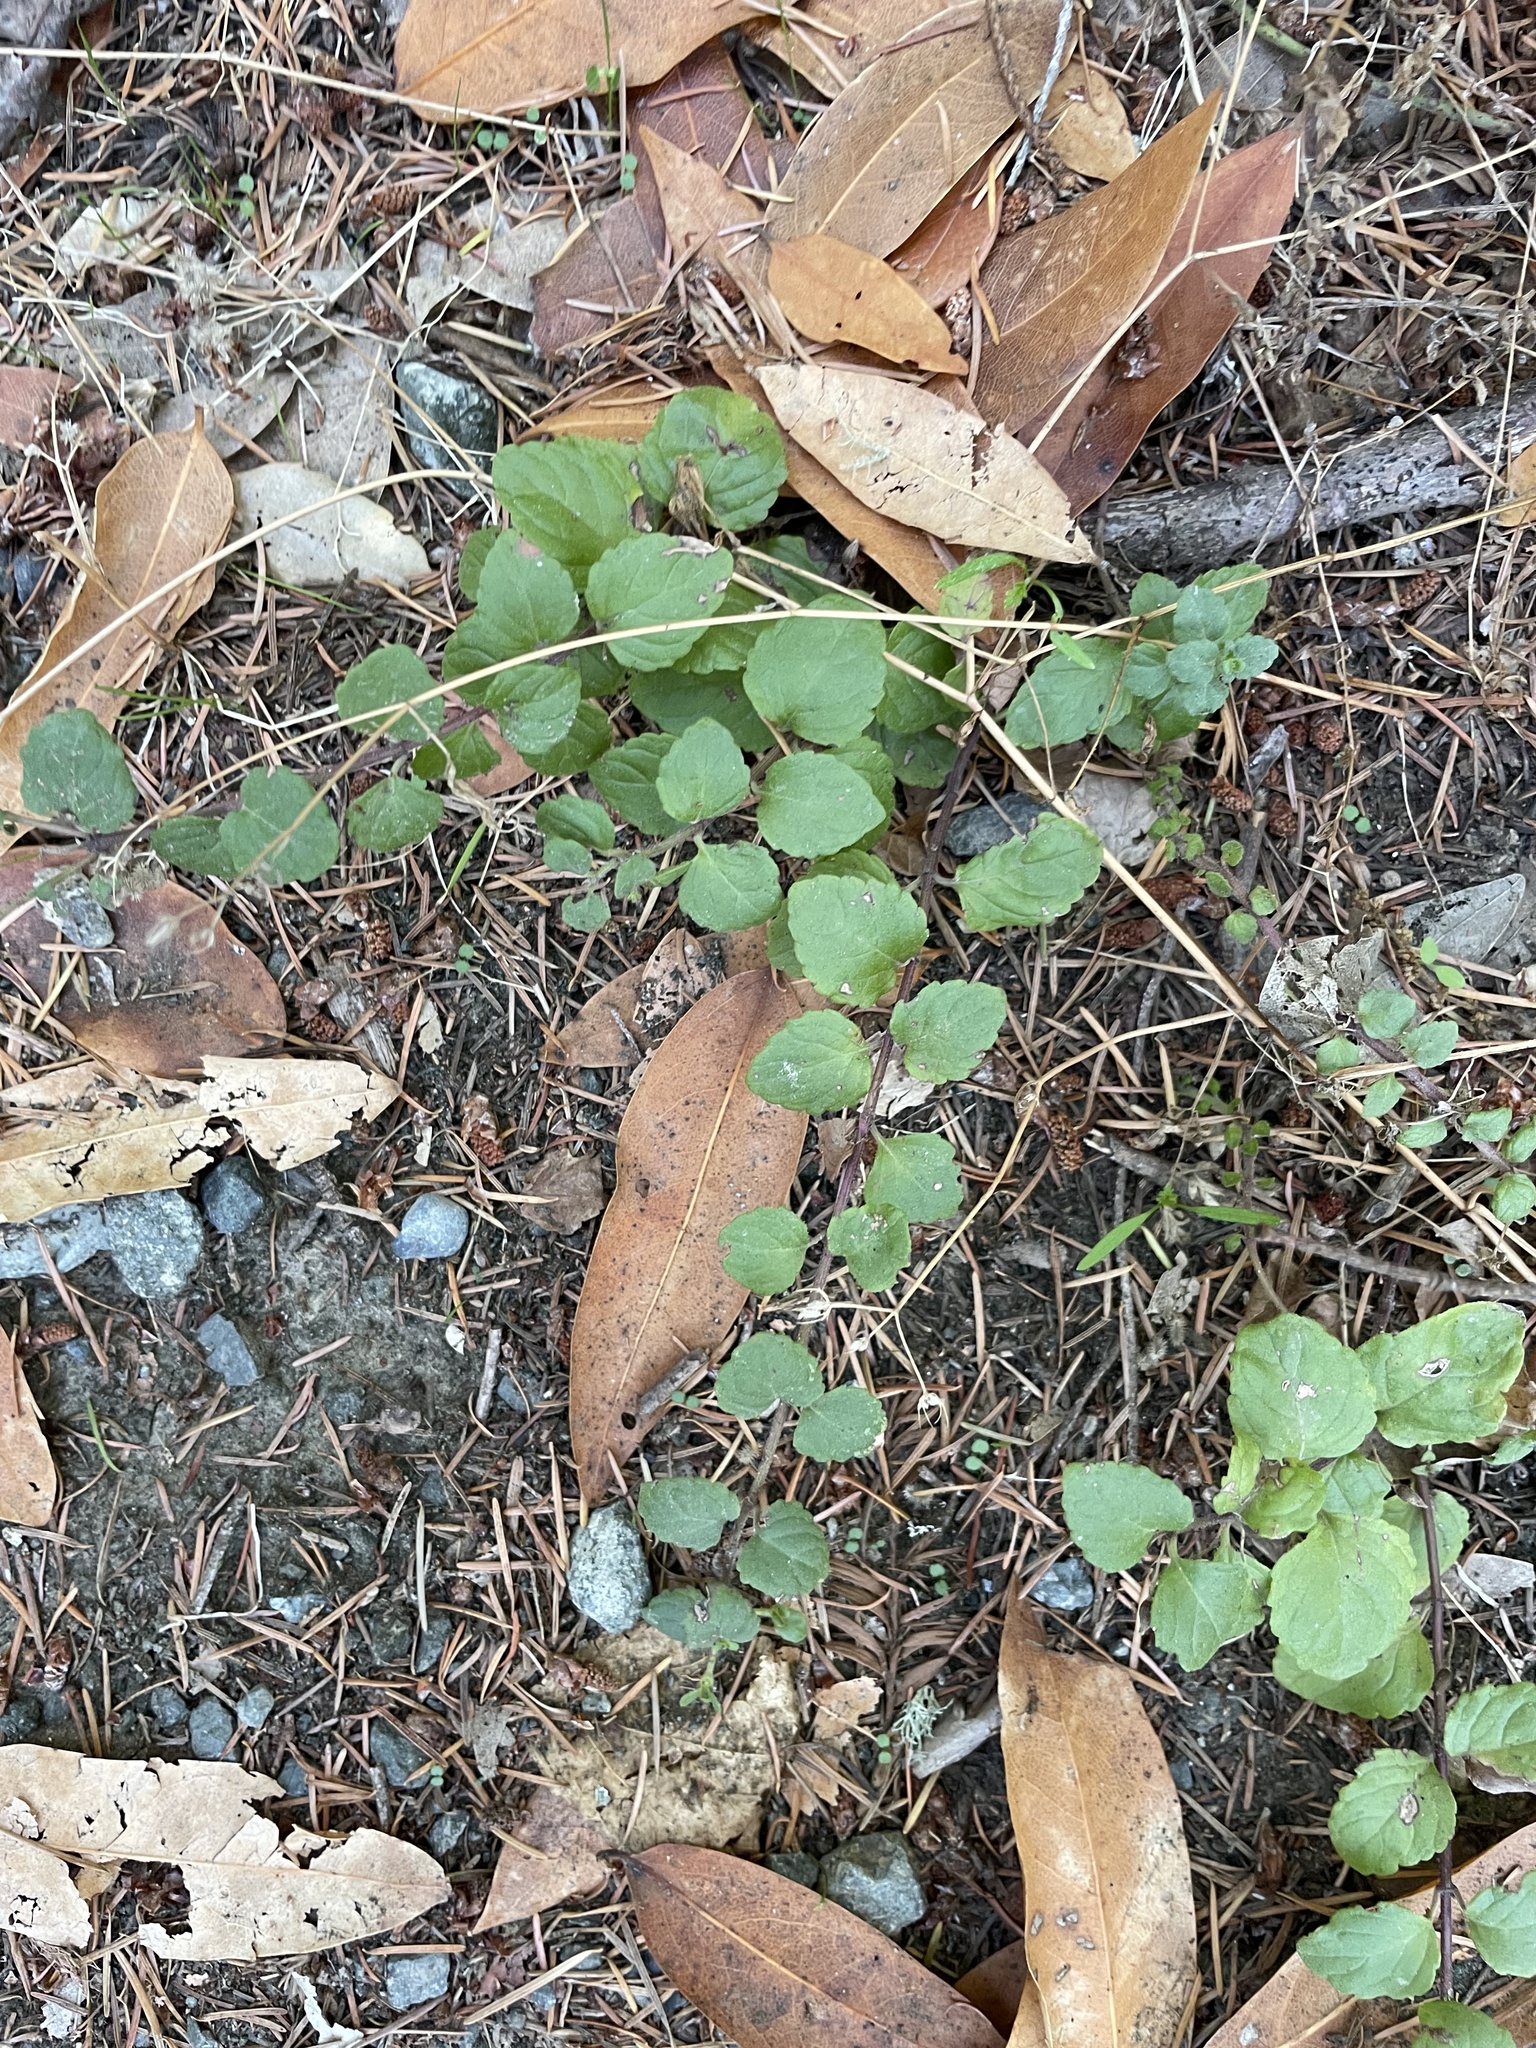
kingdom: Plantae
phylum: Tracheophyta
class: Magnoliopsida
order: Lamiales
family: Lamiaceae
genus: Micromeria
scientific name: Micromeria douglasii
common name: Yerba buena
